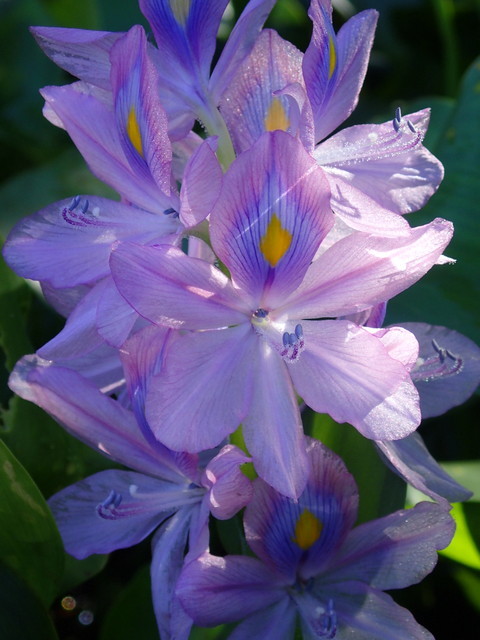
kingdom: Plantae
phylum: Tracheophyta
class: Liliopsida
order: Commelinales
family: Pontederiaceae
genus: Pontederia
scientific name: Pontederia crassipes
